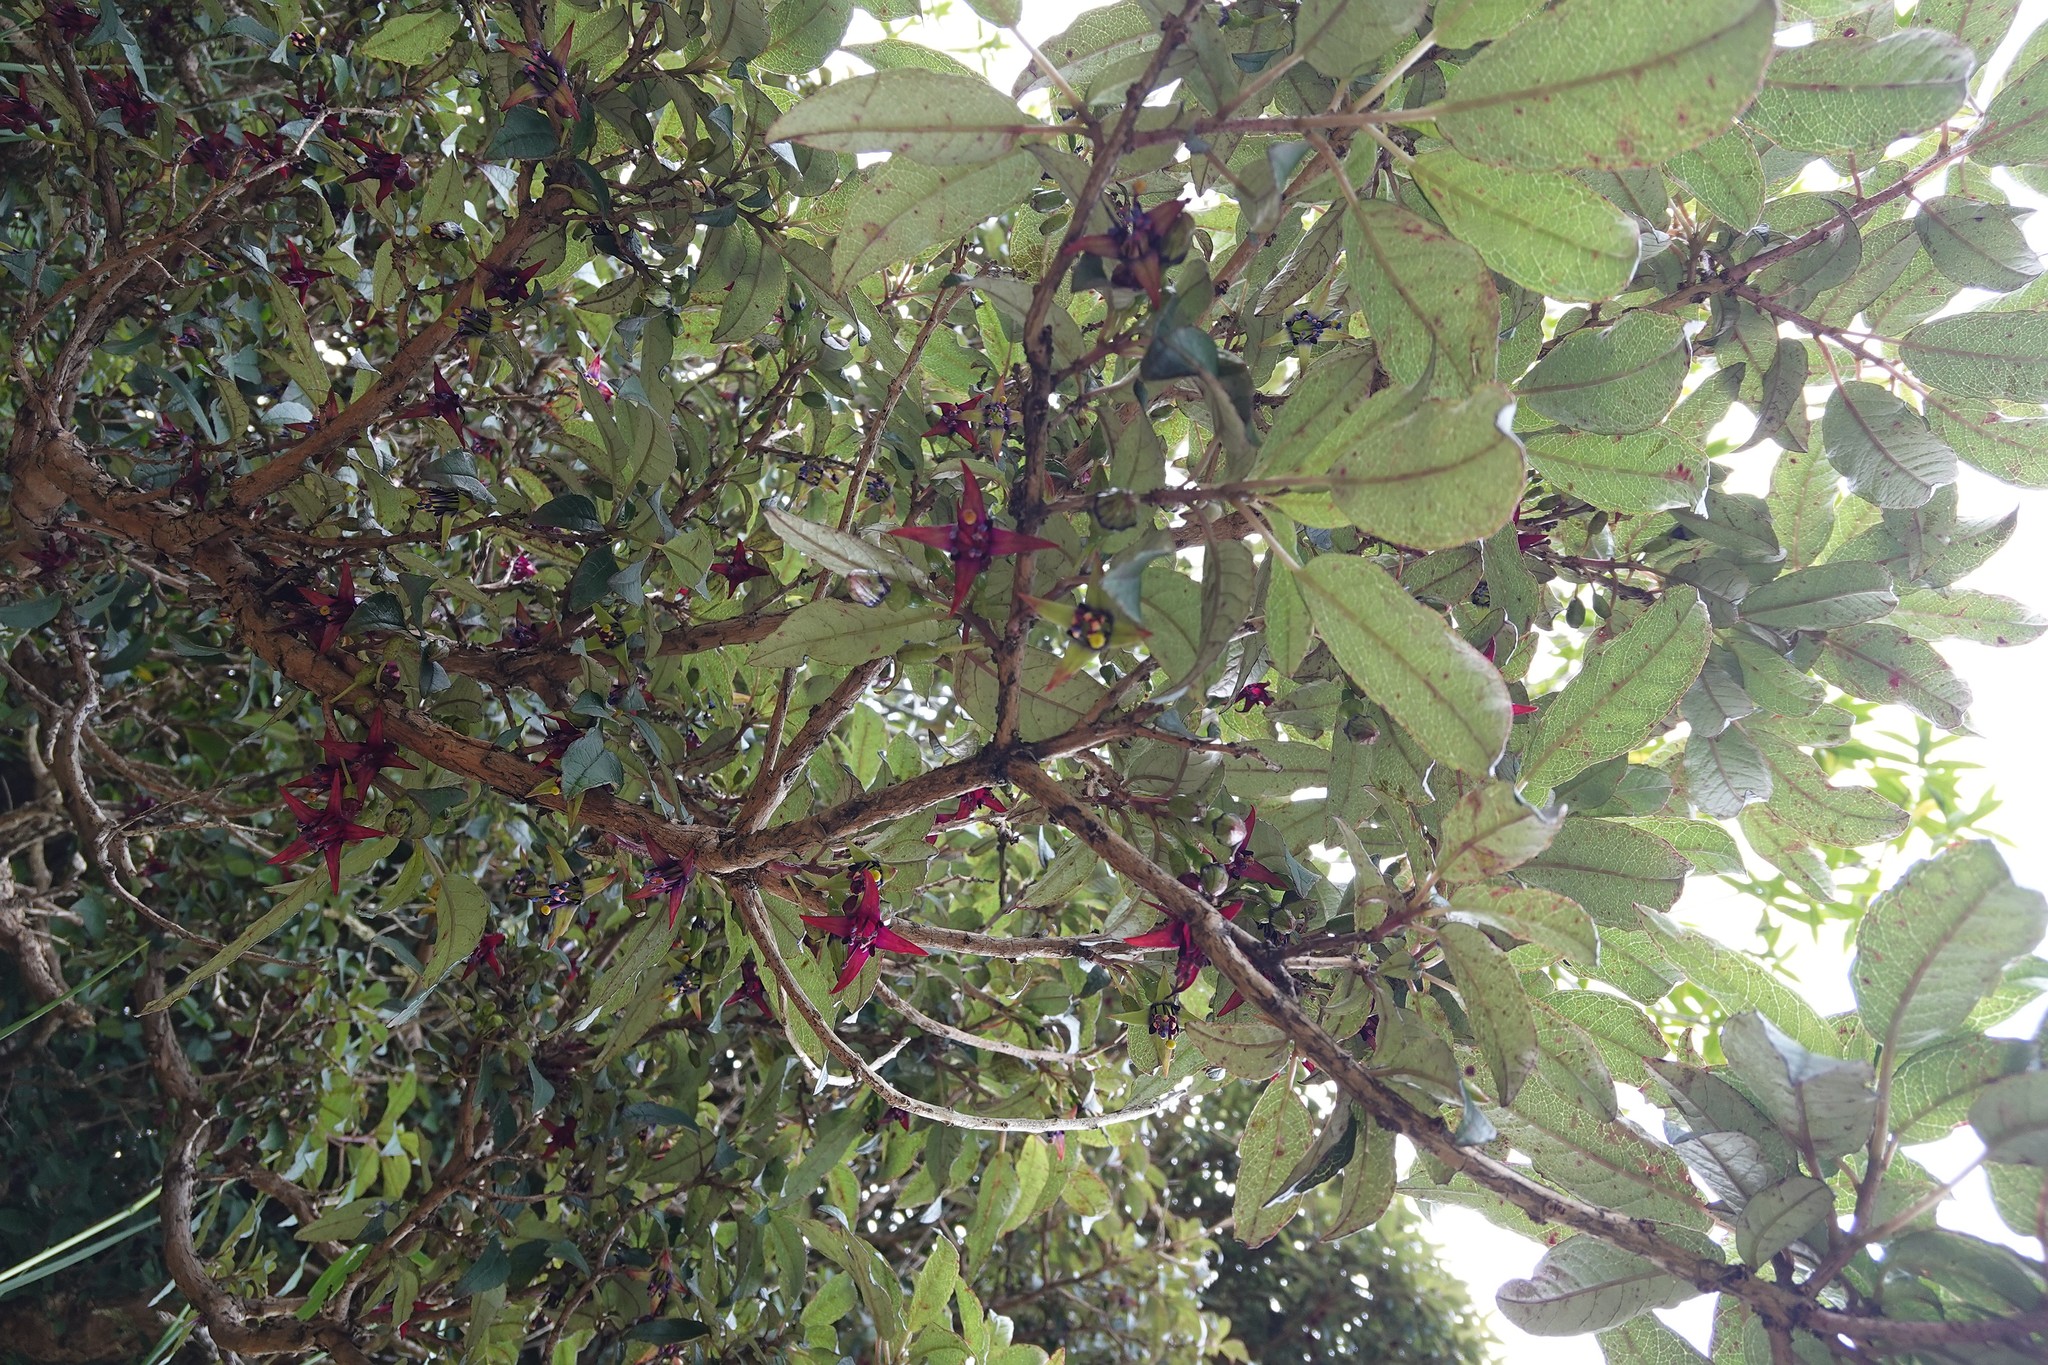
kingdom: Plantae
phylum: Tracheophyta
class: Magnoliopsida
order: Myrtales
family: Onagraceae
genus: Fuchsia
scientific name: Fuchsia excorticata
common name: Tree fuchsia
